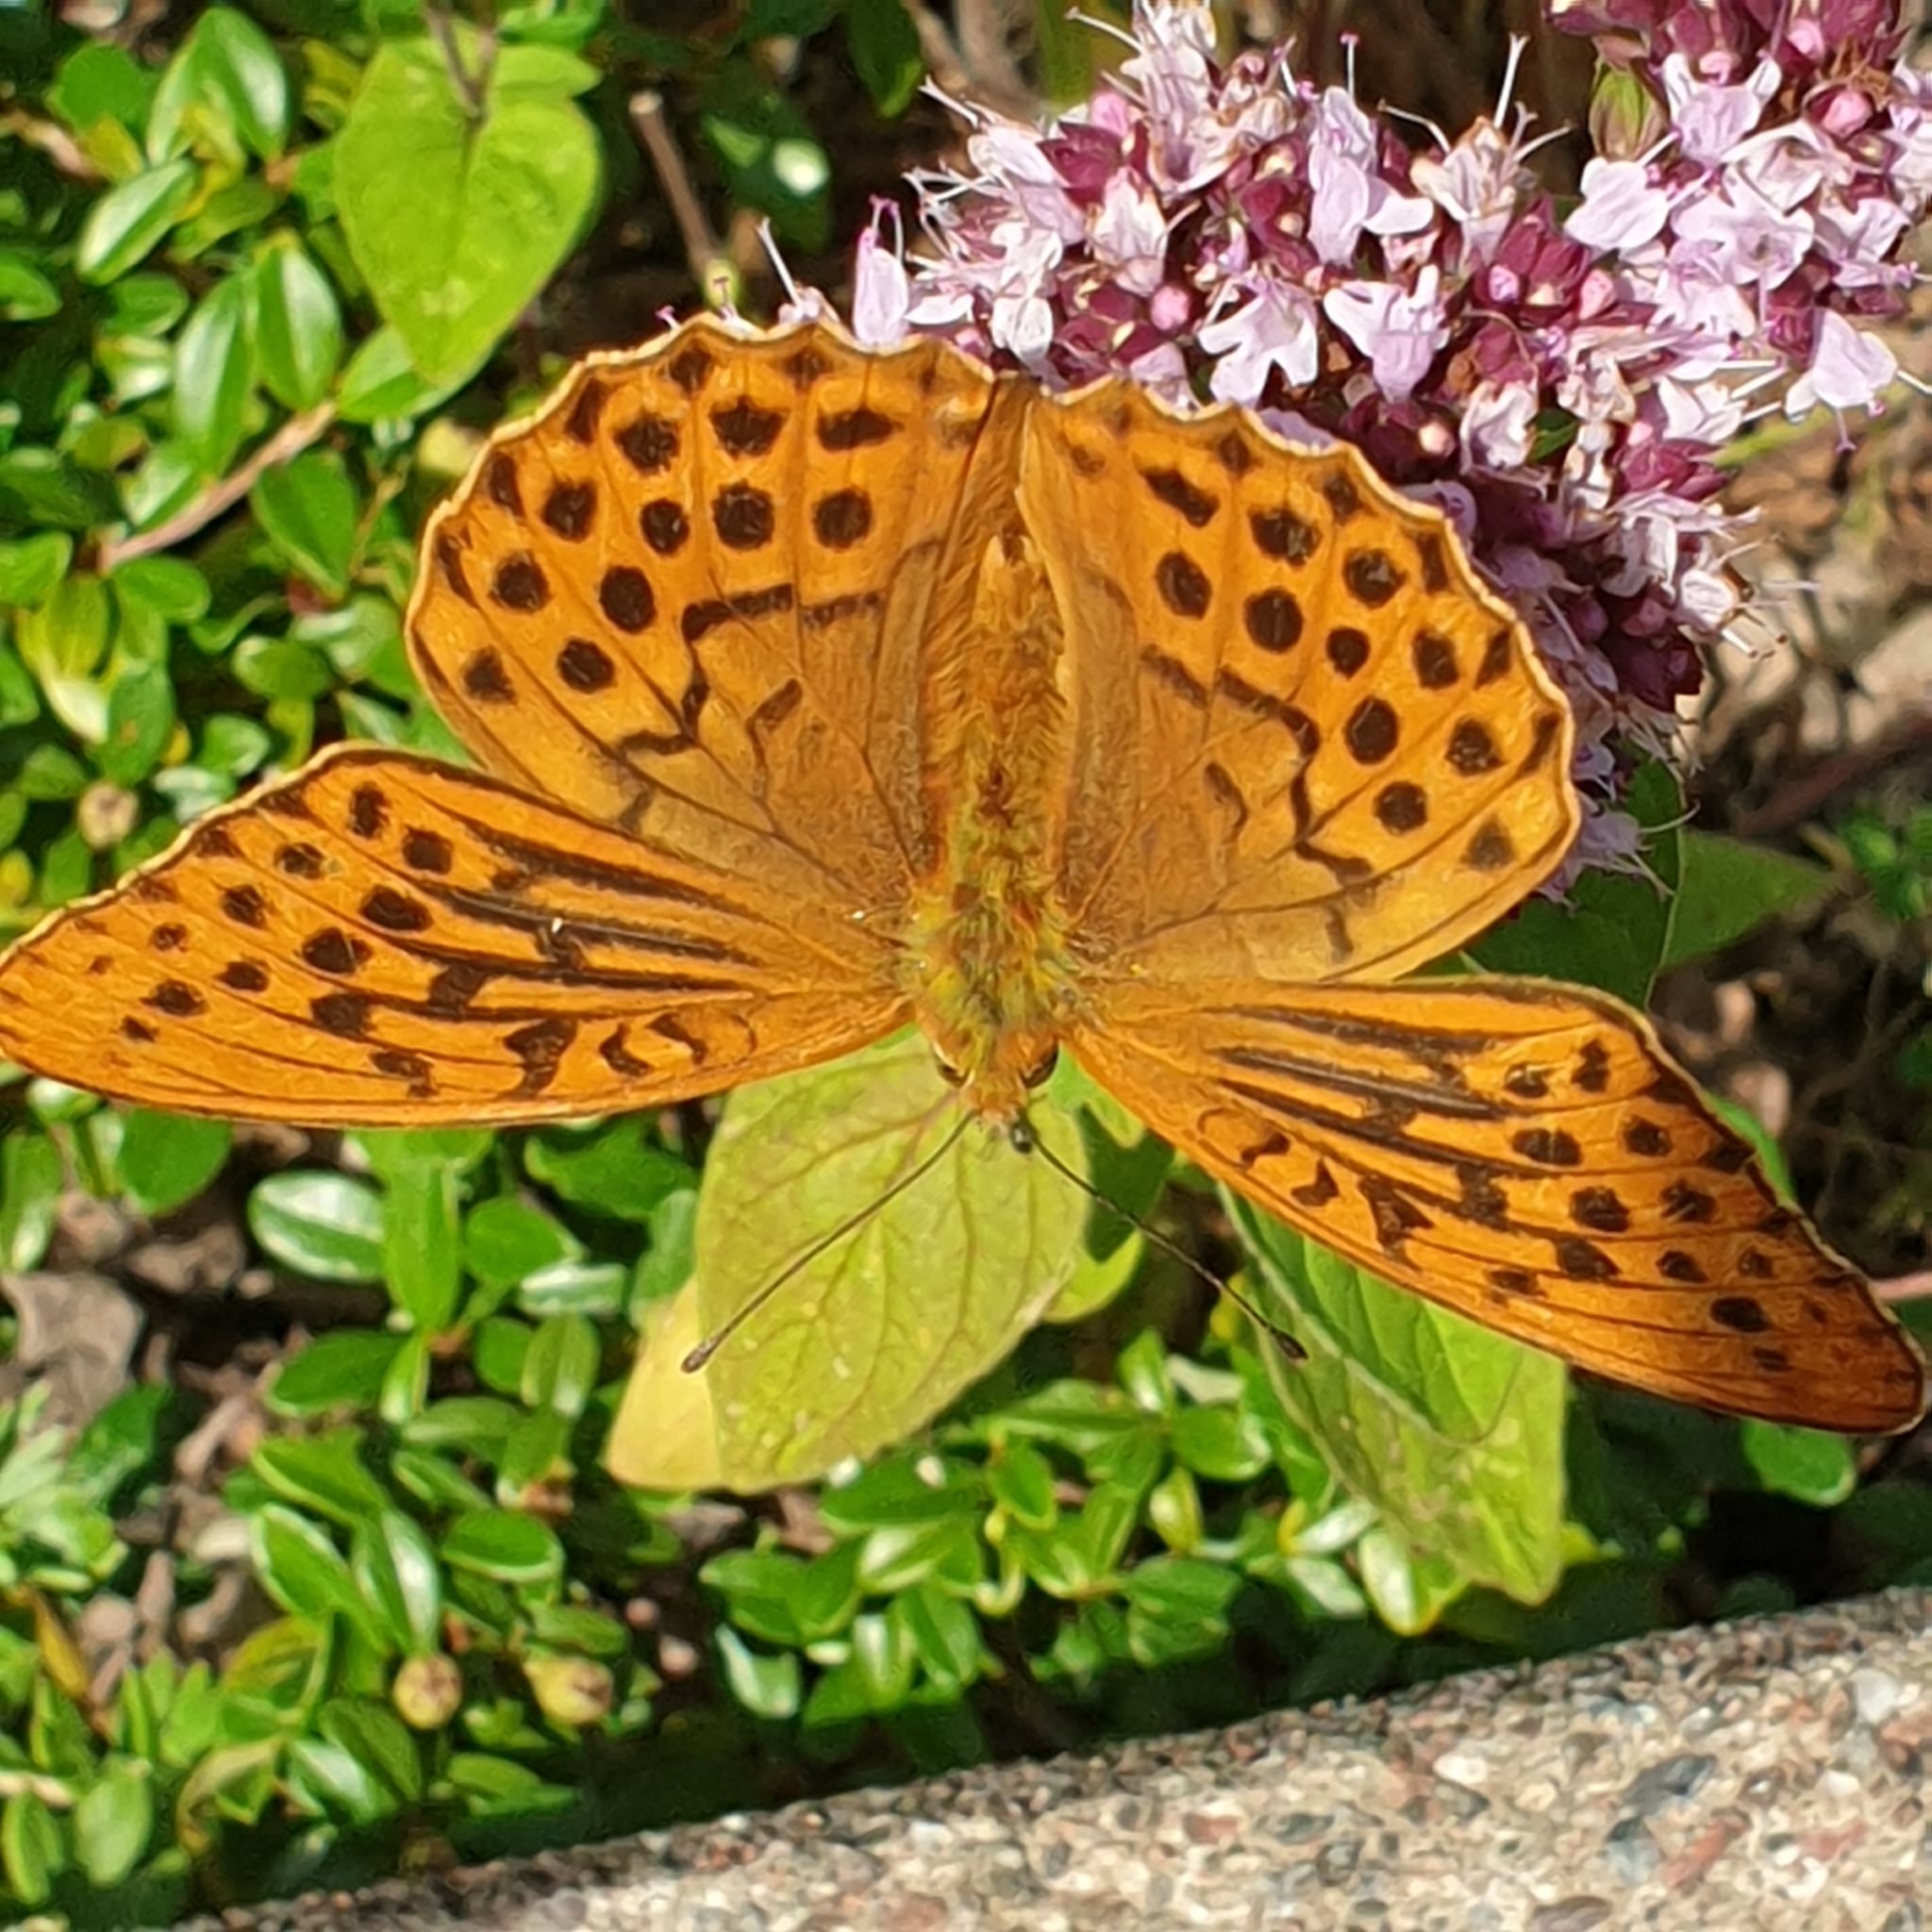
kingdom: Animalia
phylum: Arthropoda
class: Insecta
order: Lepidoptera
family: Nymphalidae
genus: Argynnis
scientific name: Argynnis paphia
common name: Silver-washed fritillary
